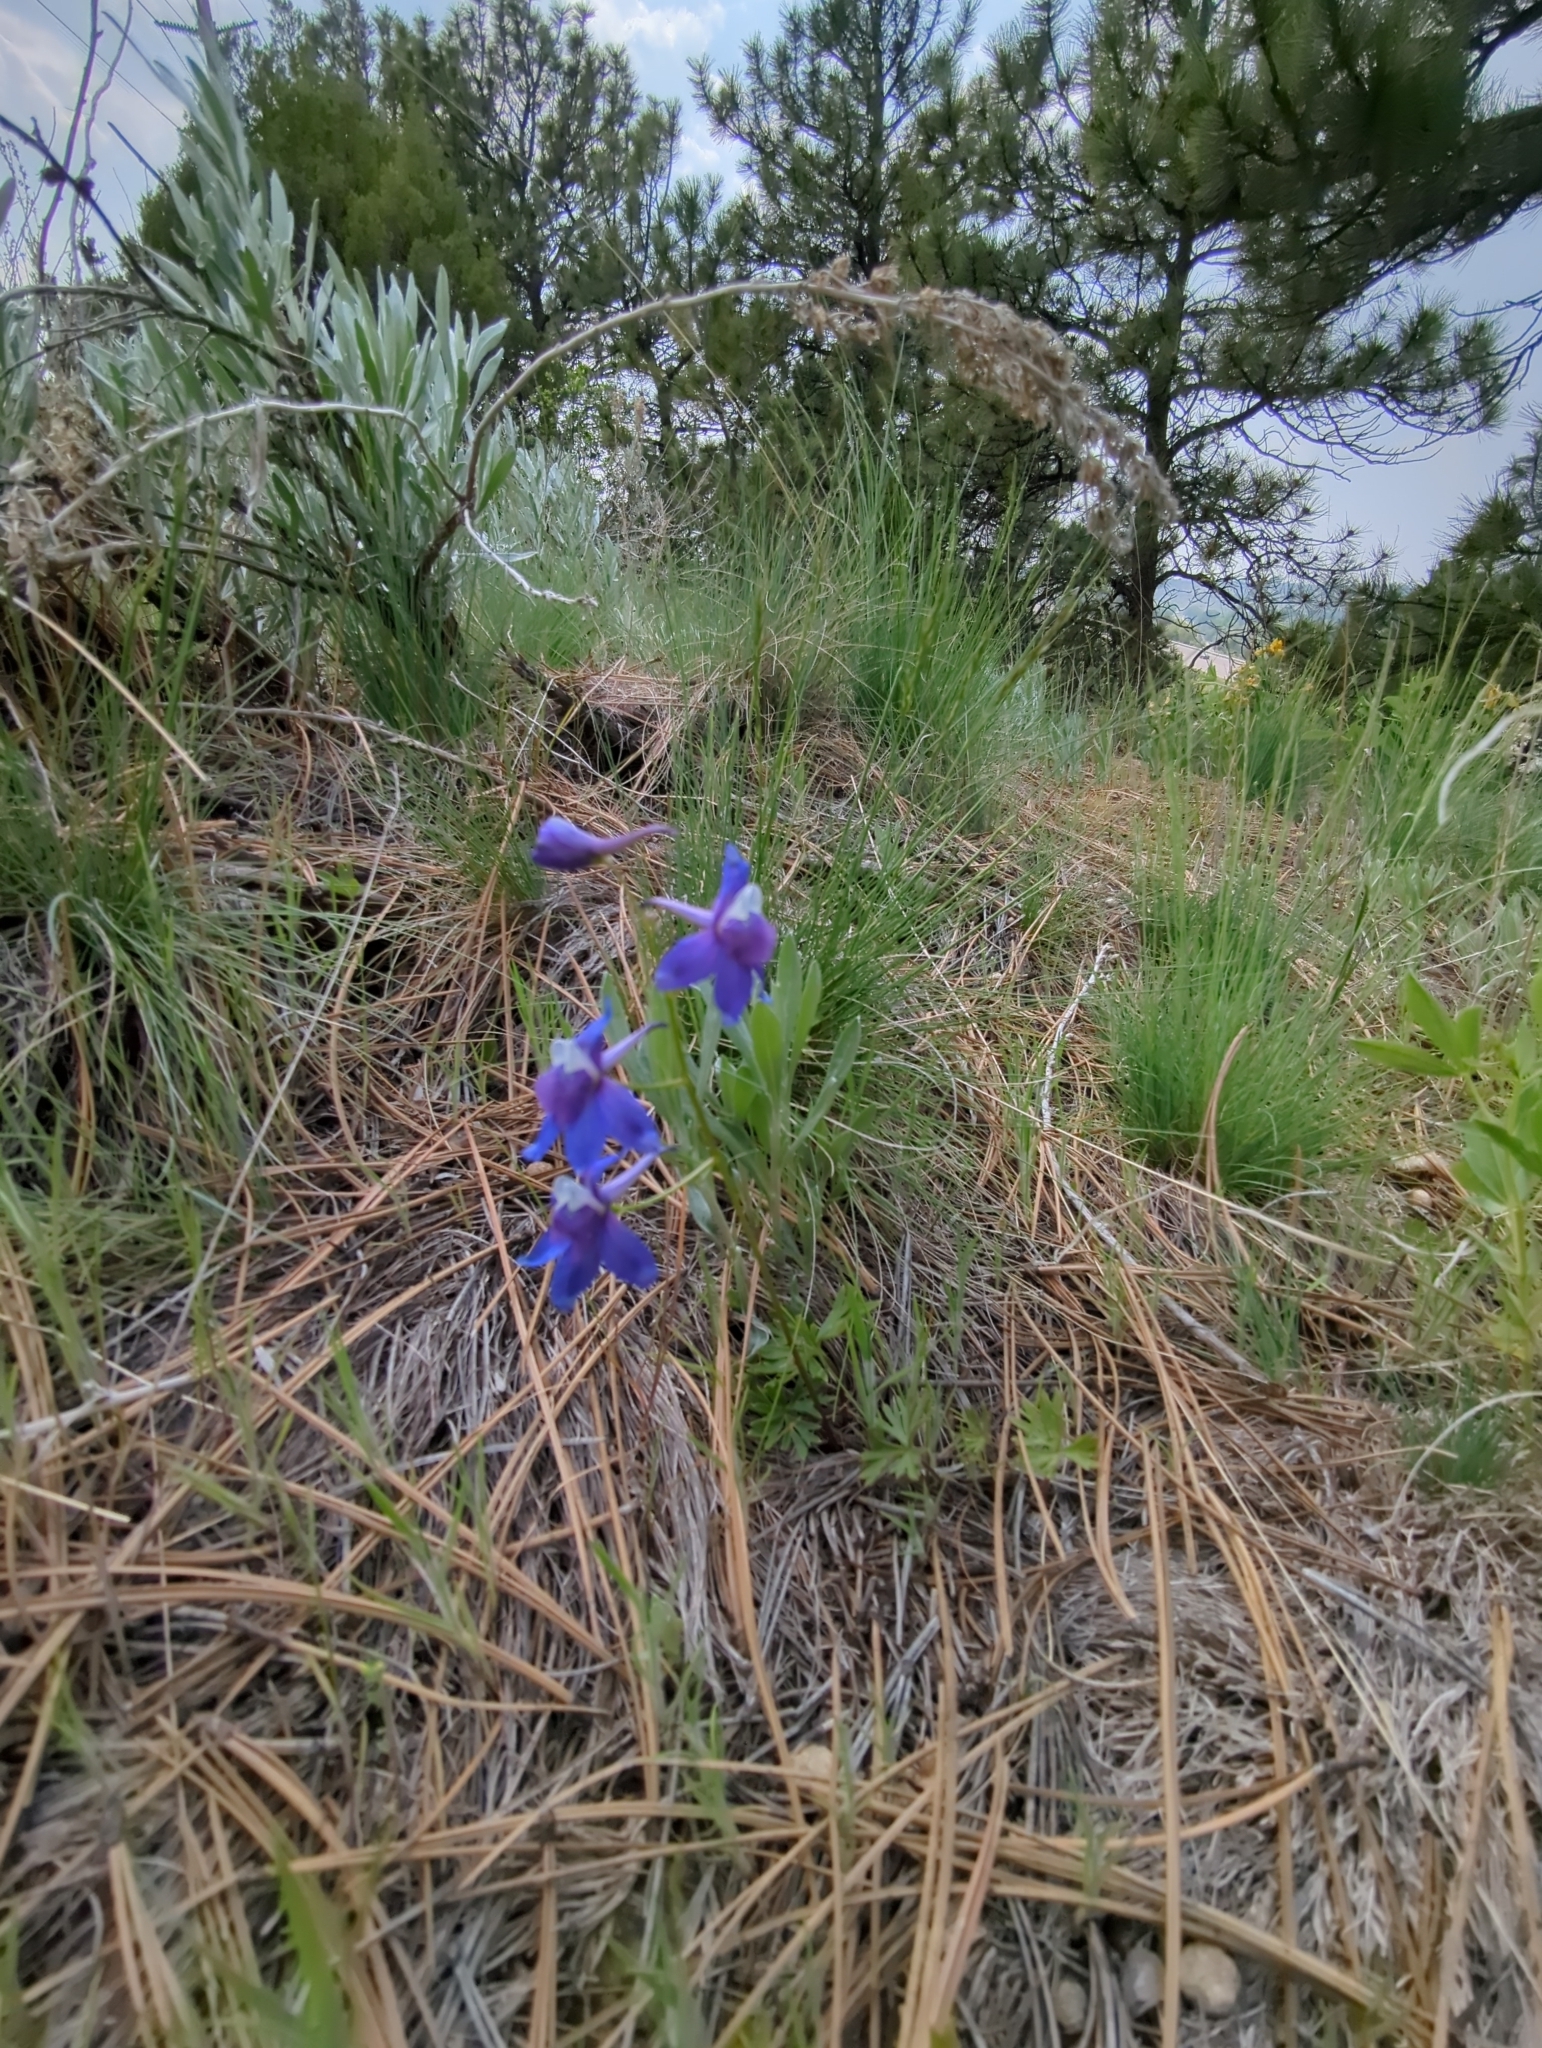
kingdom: Plantae
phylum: Tracheophyta
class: Magnoliopsida
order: Ranunculales
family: Ranunculaceae
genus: Delphinium
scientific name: Delphinium bicolor
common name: Low larkspur
